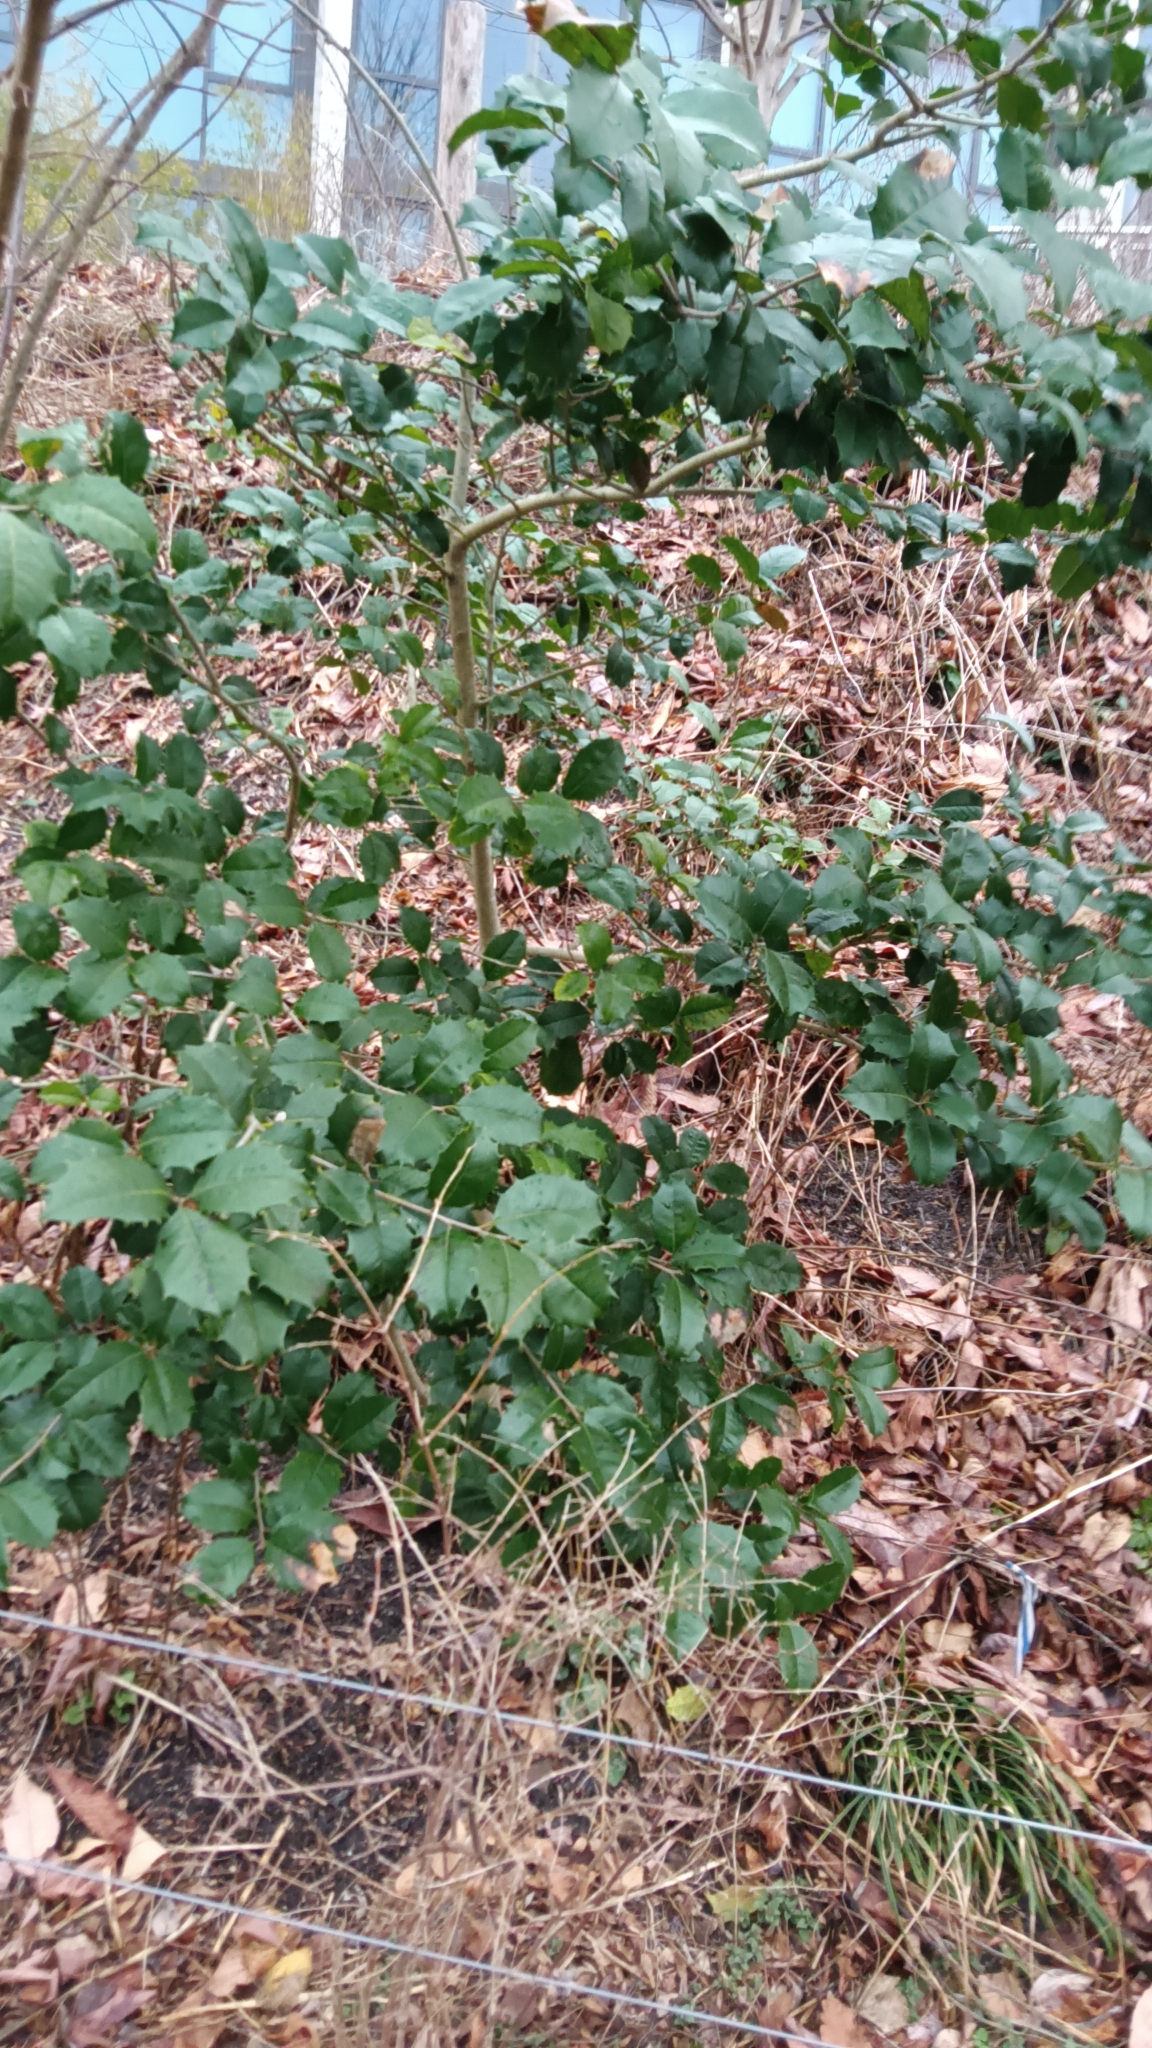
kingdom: Plantae
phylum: Tracheophyta
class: Magnoliopsida
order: Aquifoliales
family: Aquifoliaceae
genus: Ilex
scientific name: Ilex opaca
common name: American holly
